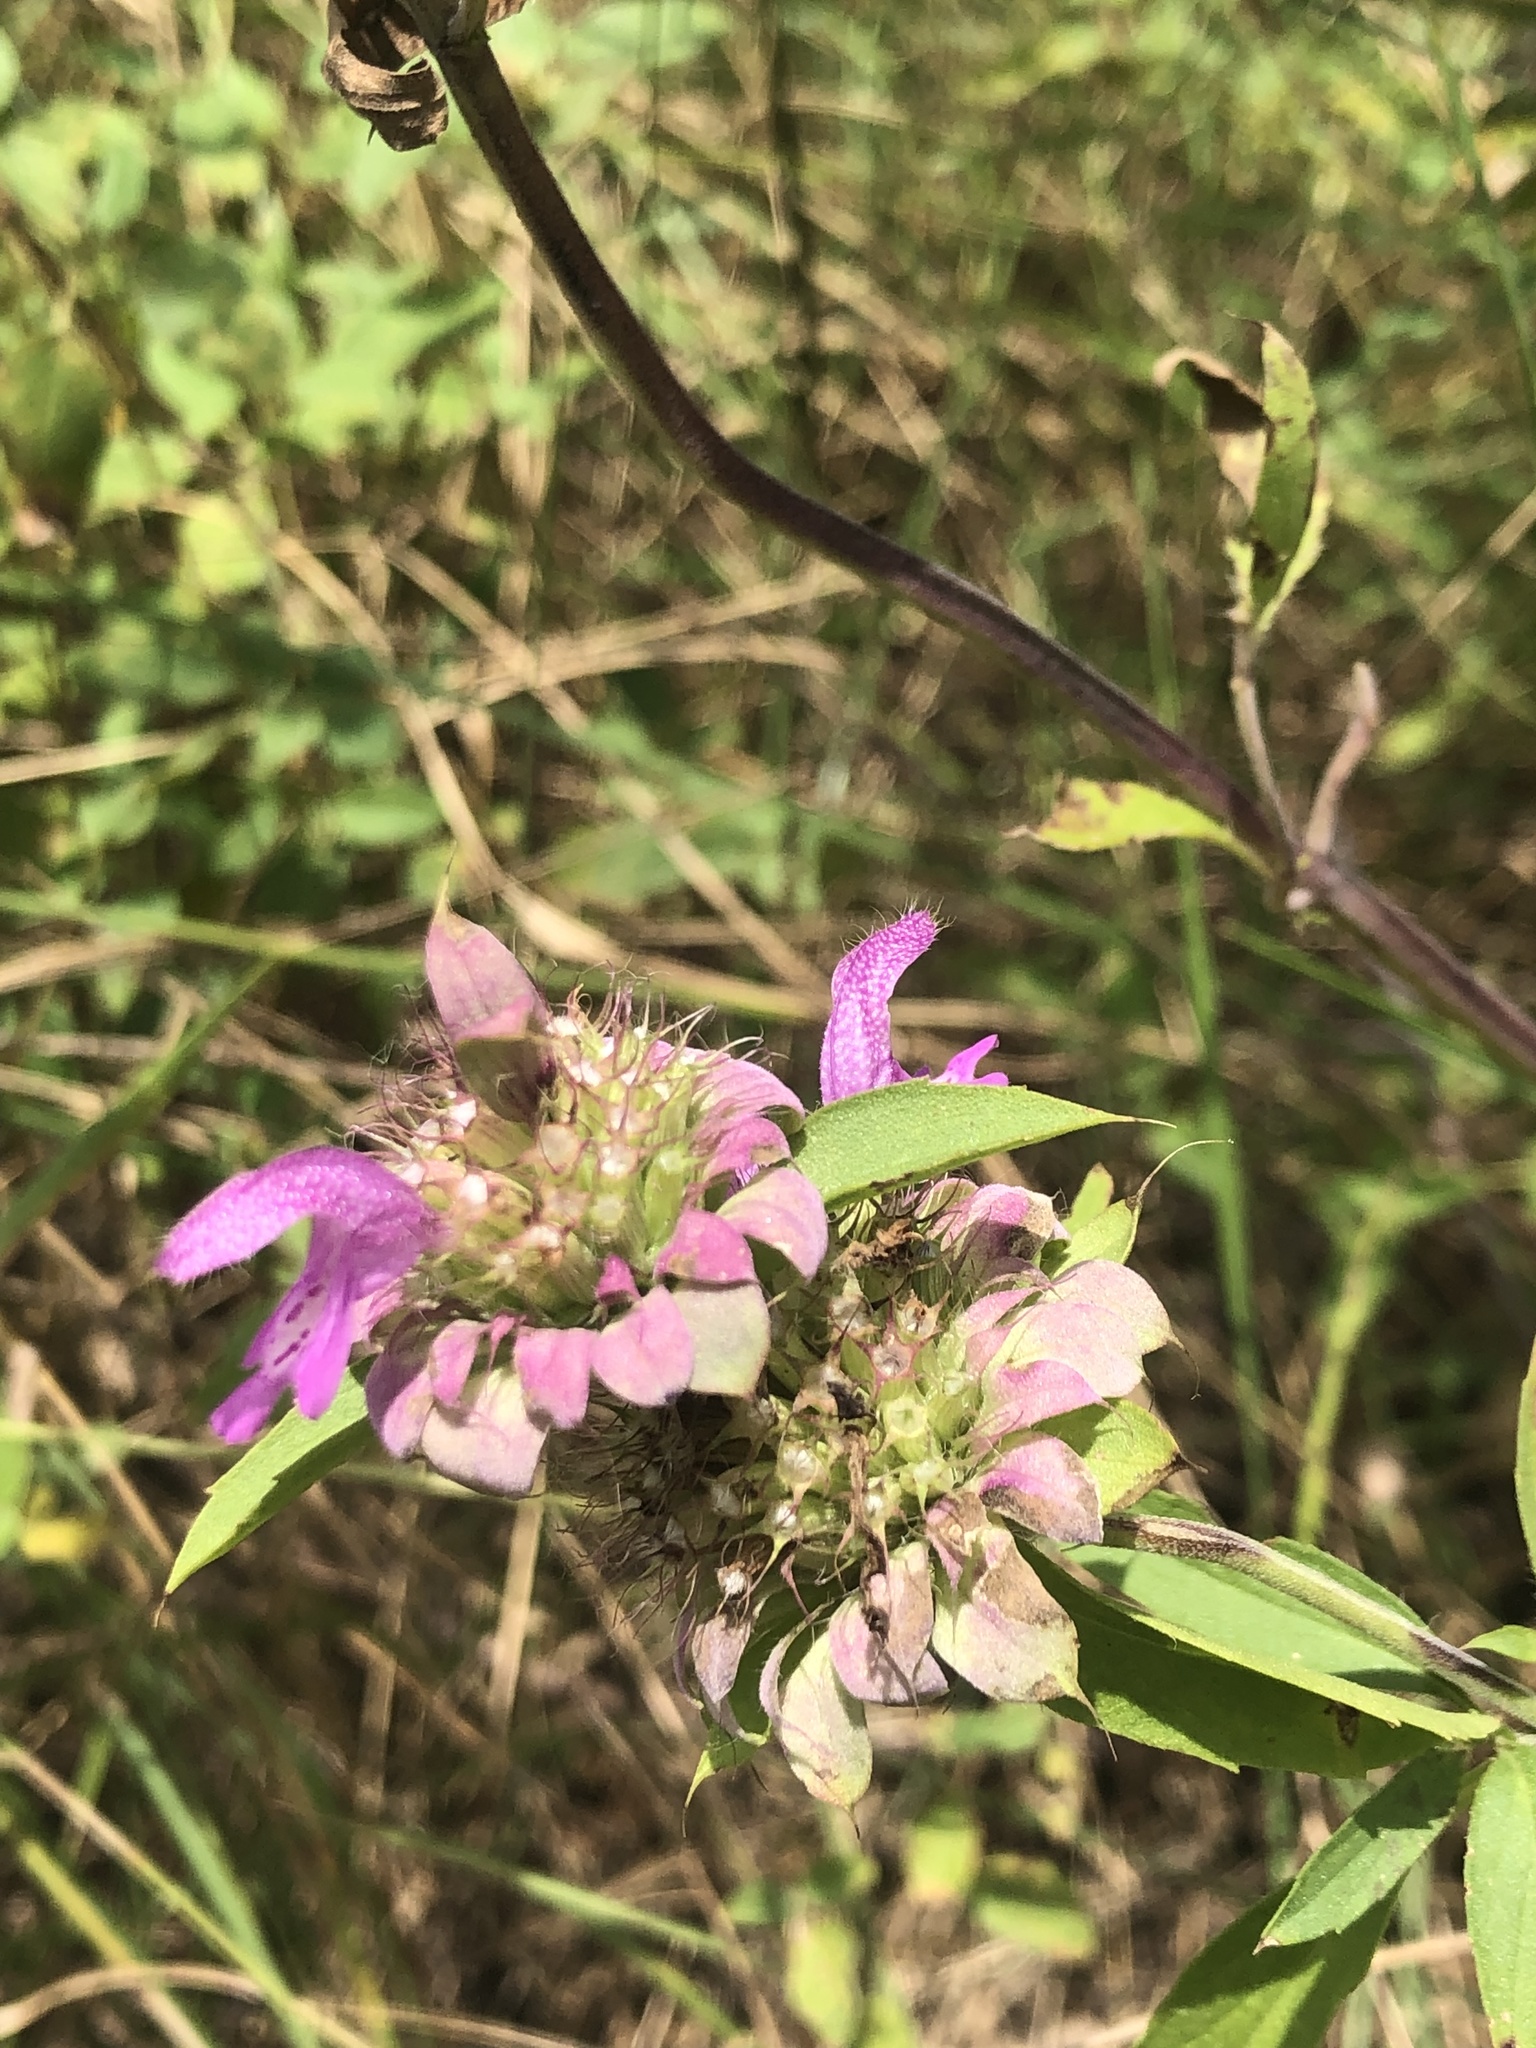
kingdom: Plantae
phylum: Tracheophyta
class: Magnoliopsida
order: Lamiales
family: Lamiaceae
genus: Monarda
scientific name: Monarda citriodora
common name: Lemon beebalm
